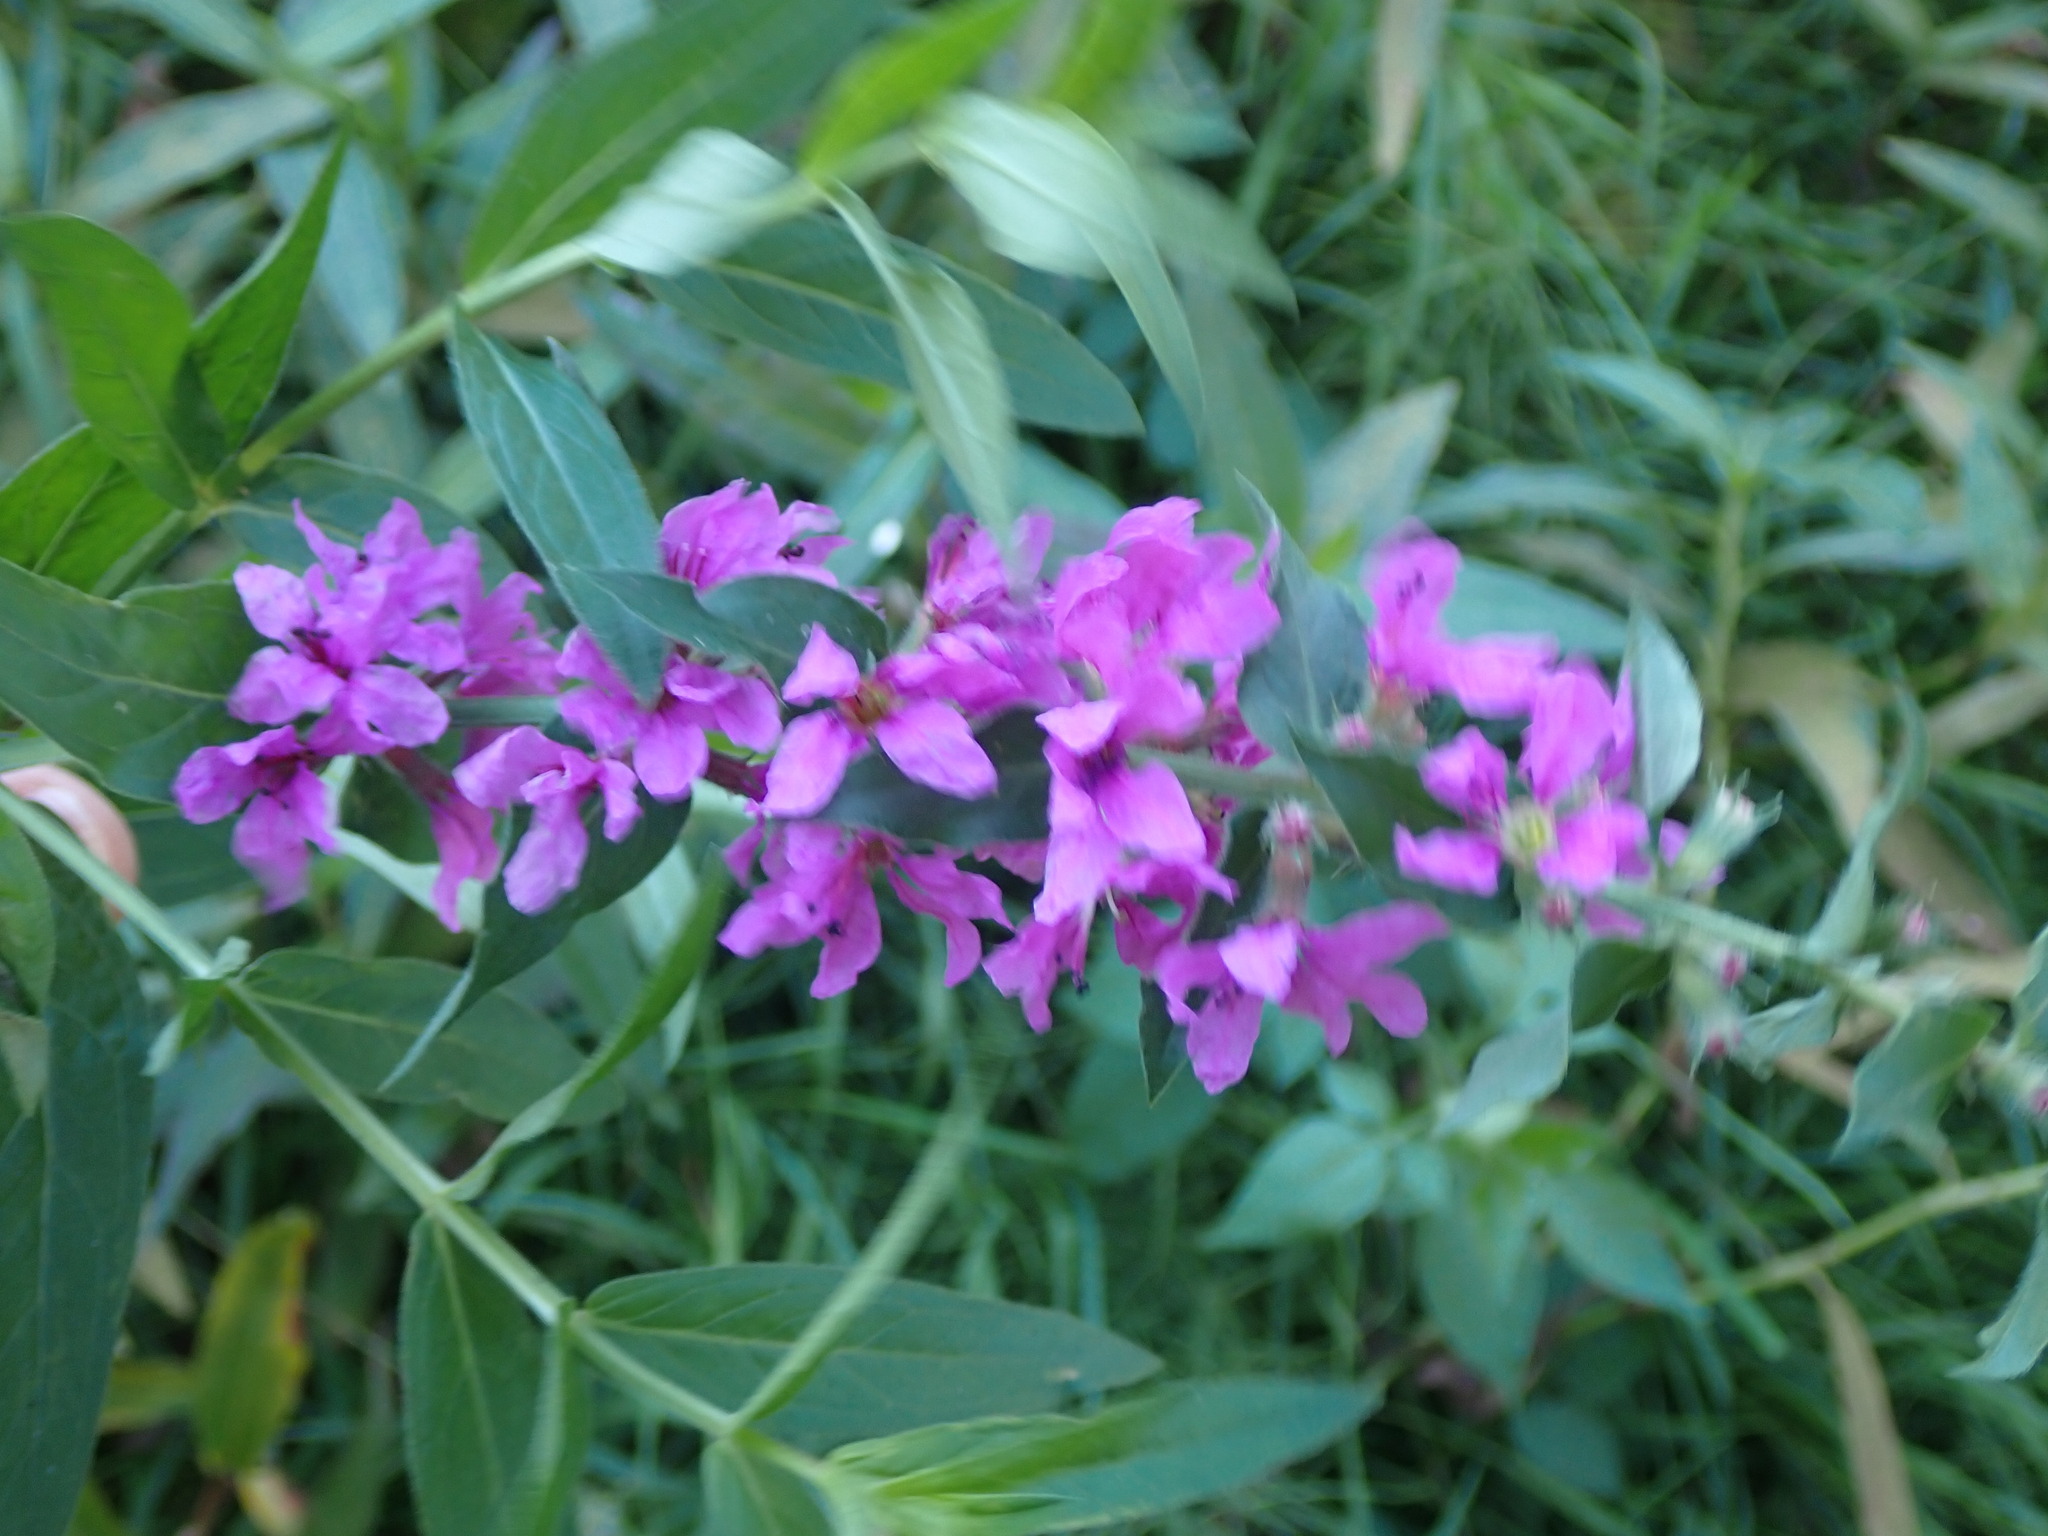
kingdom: Plantae
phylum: Tracheophyta
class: Magnoliopsida
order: Myrtales
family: Lythraceae
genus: Lythrum
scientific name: Lythrum salicaria
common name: Purple loosestrife
